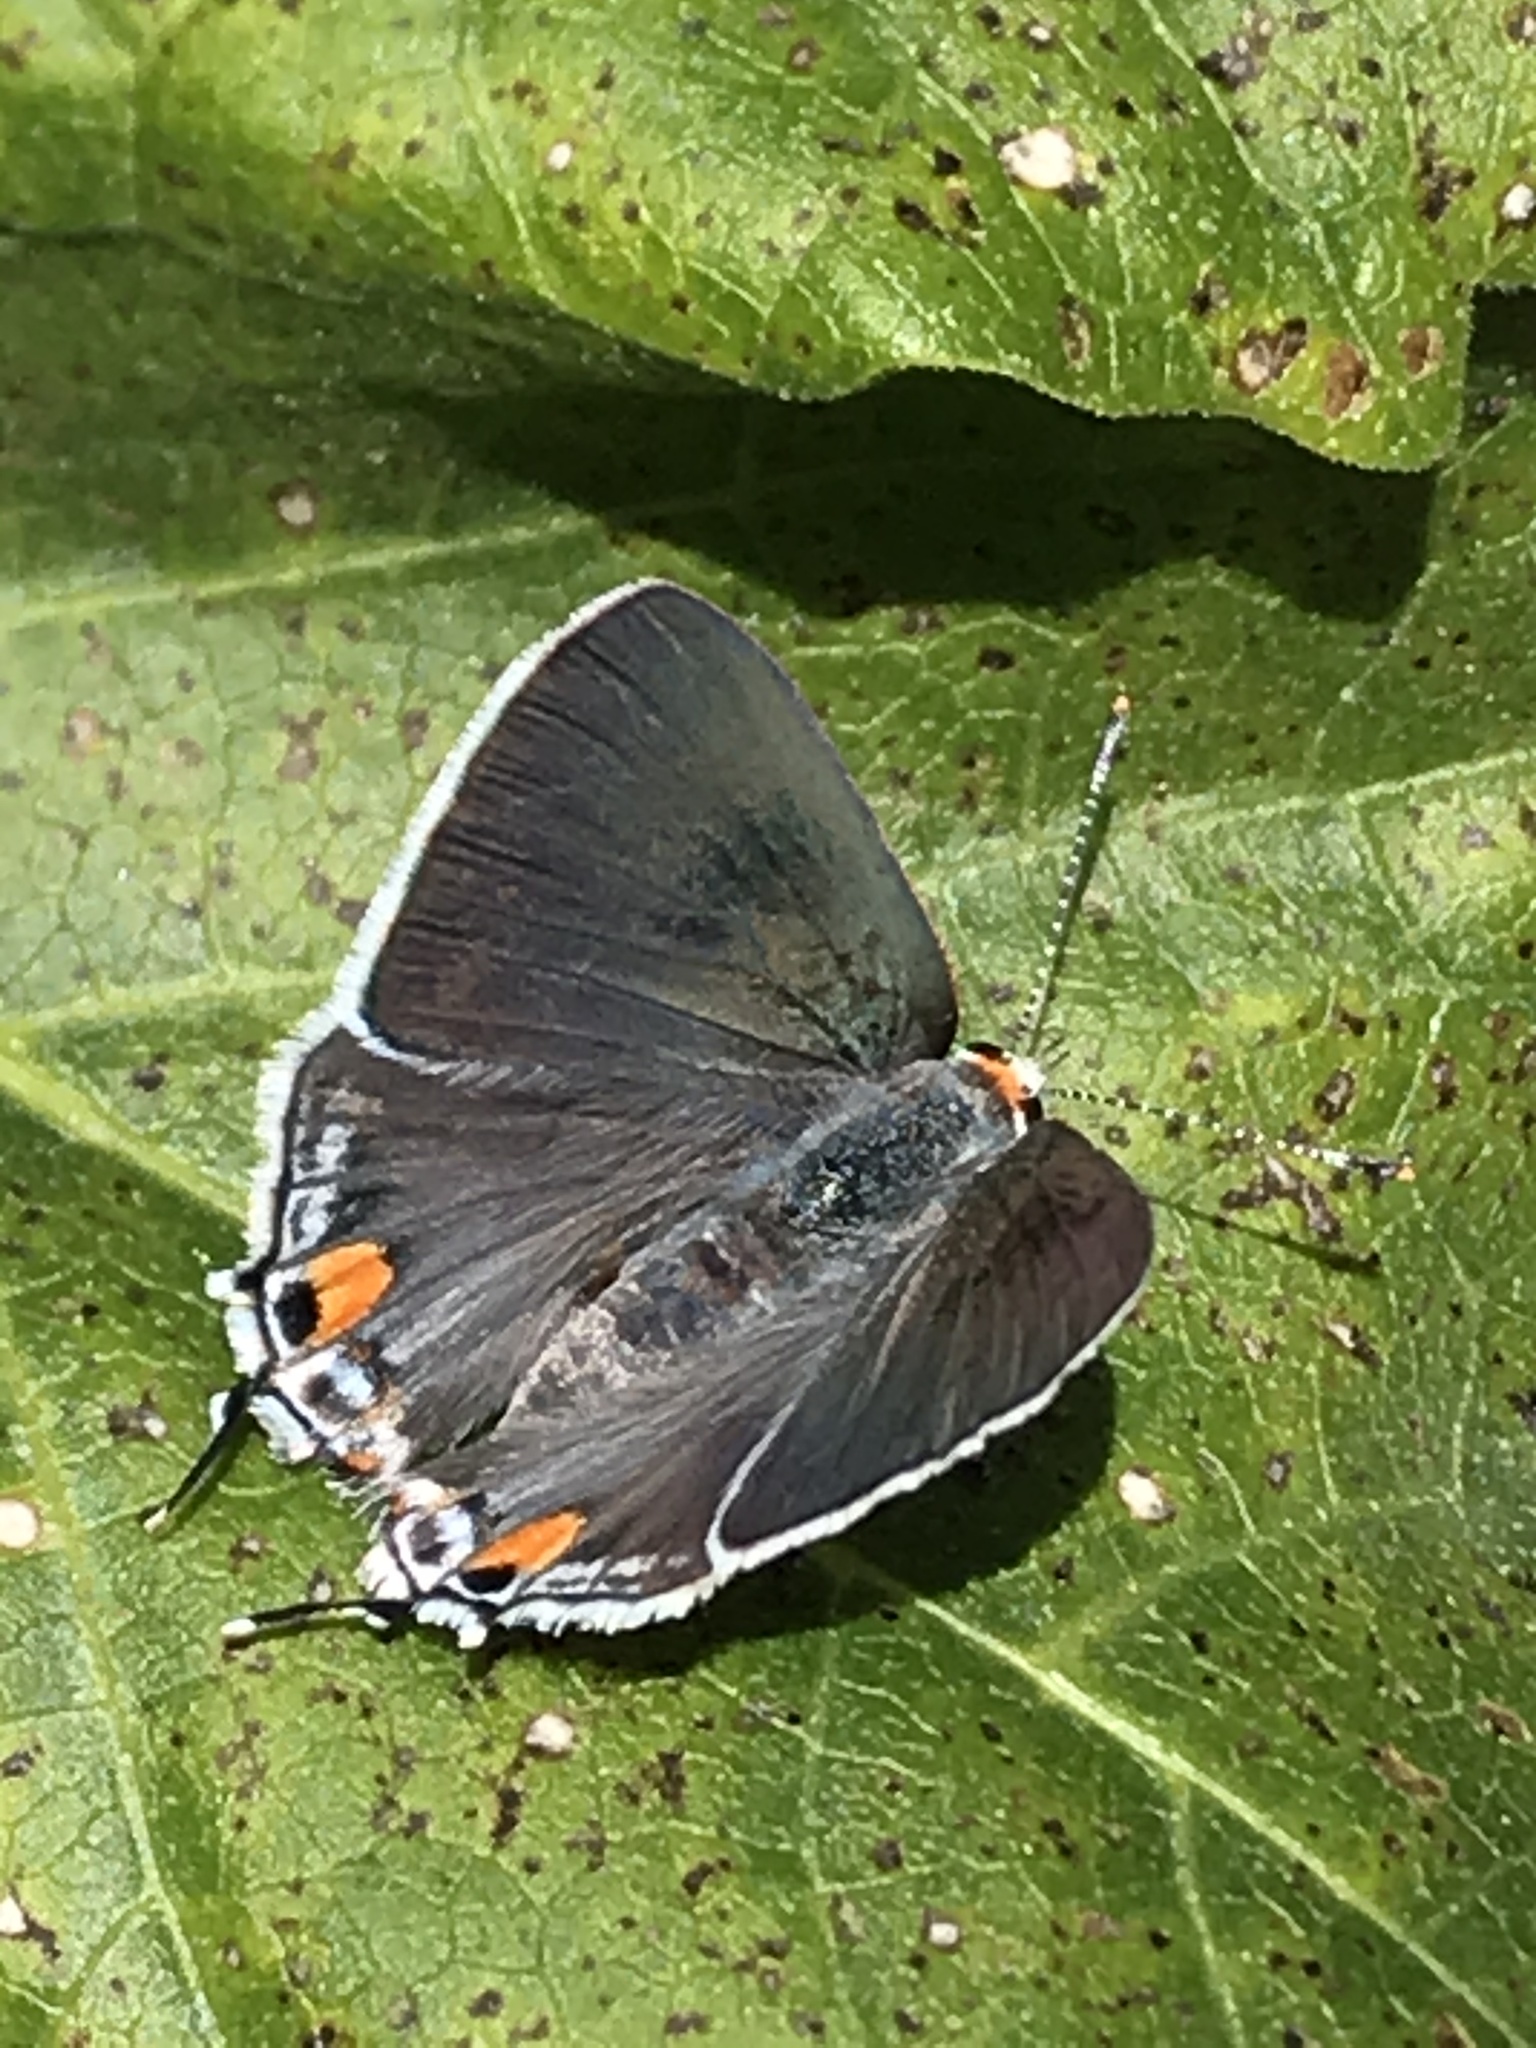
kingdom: Animalia
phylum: Arthropoda
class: Insecta
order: Lepidoptera
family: Lycaenidae
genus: Strymon
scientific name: Strymon melinus
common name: Gray hairstreak
